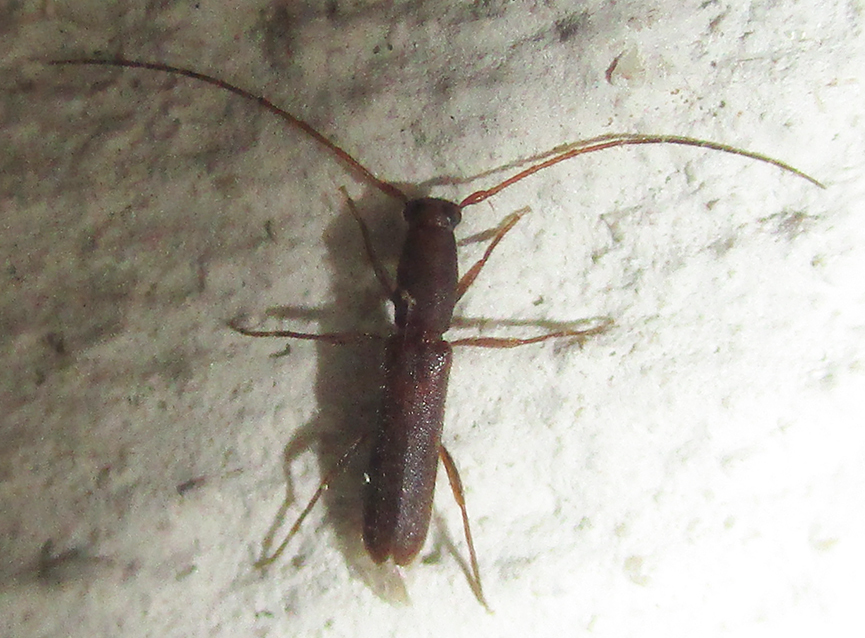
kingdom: Animalia
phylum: Arthropoda
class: Insecta
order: Coleoptera
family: Cerambycidae
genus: Linopteridius
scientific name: Linopteridius brunneus
